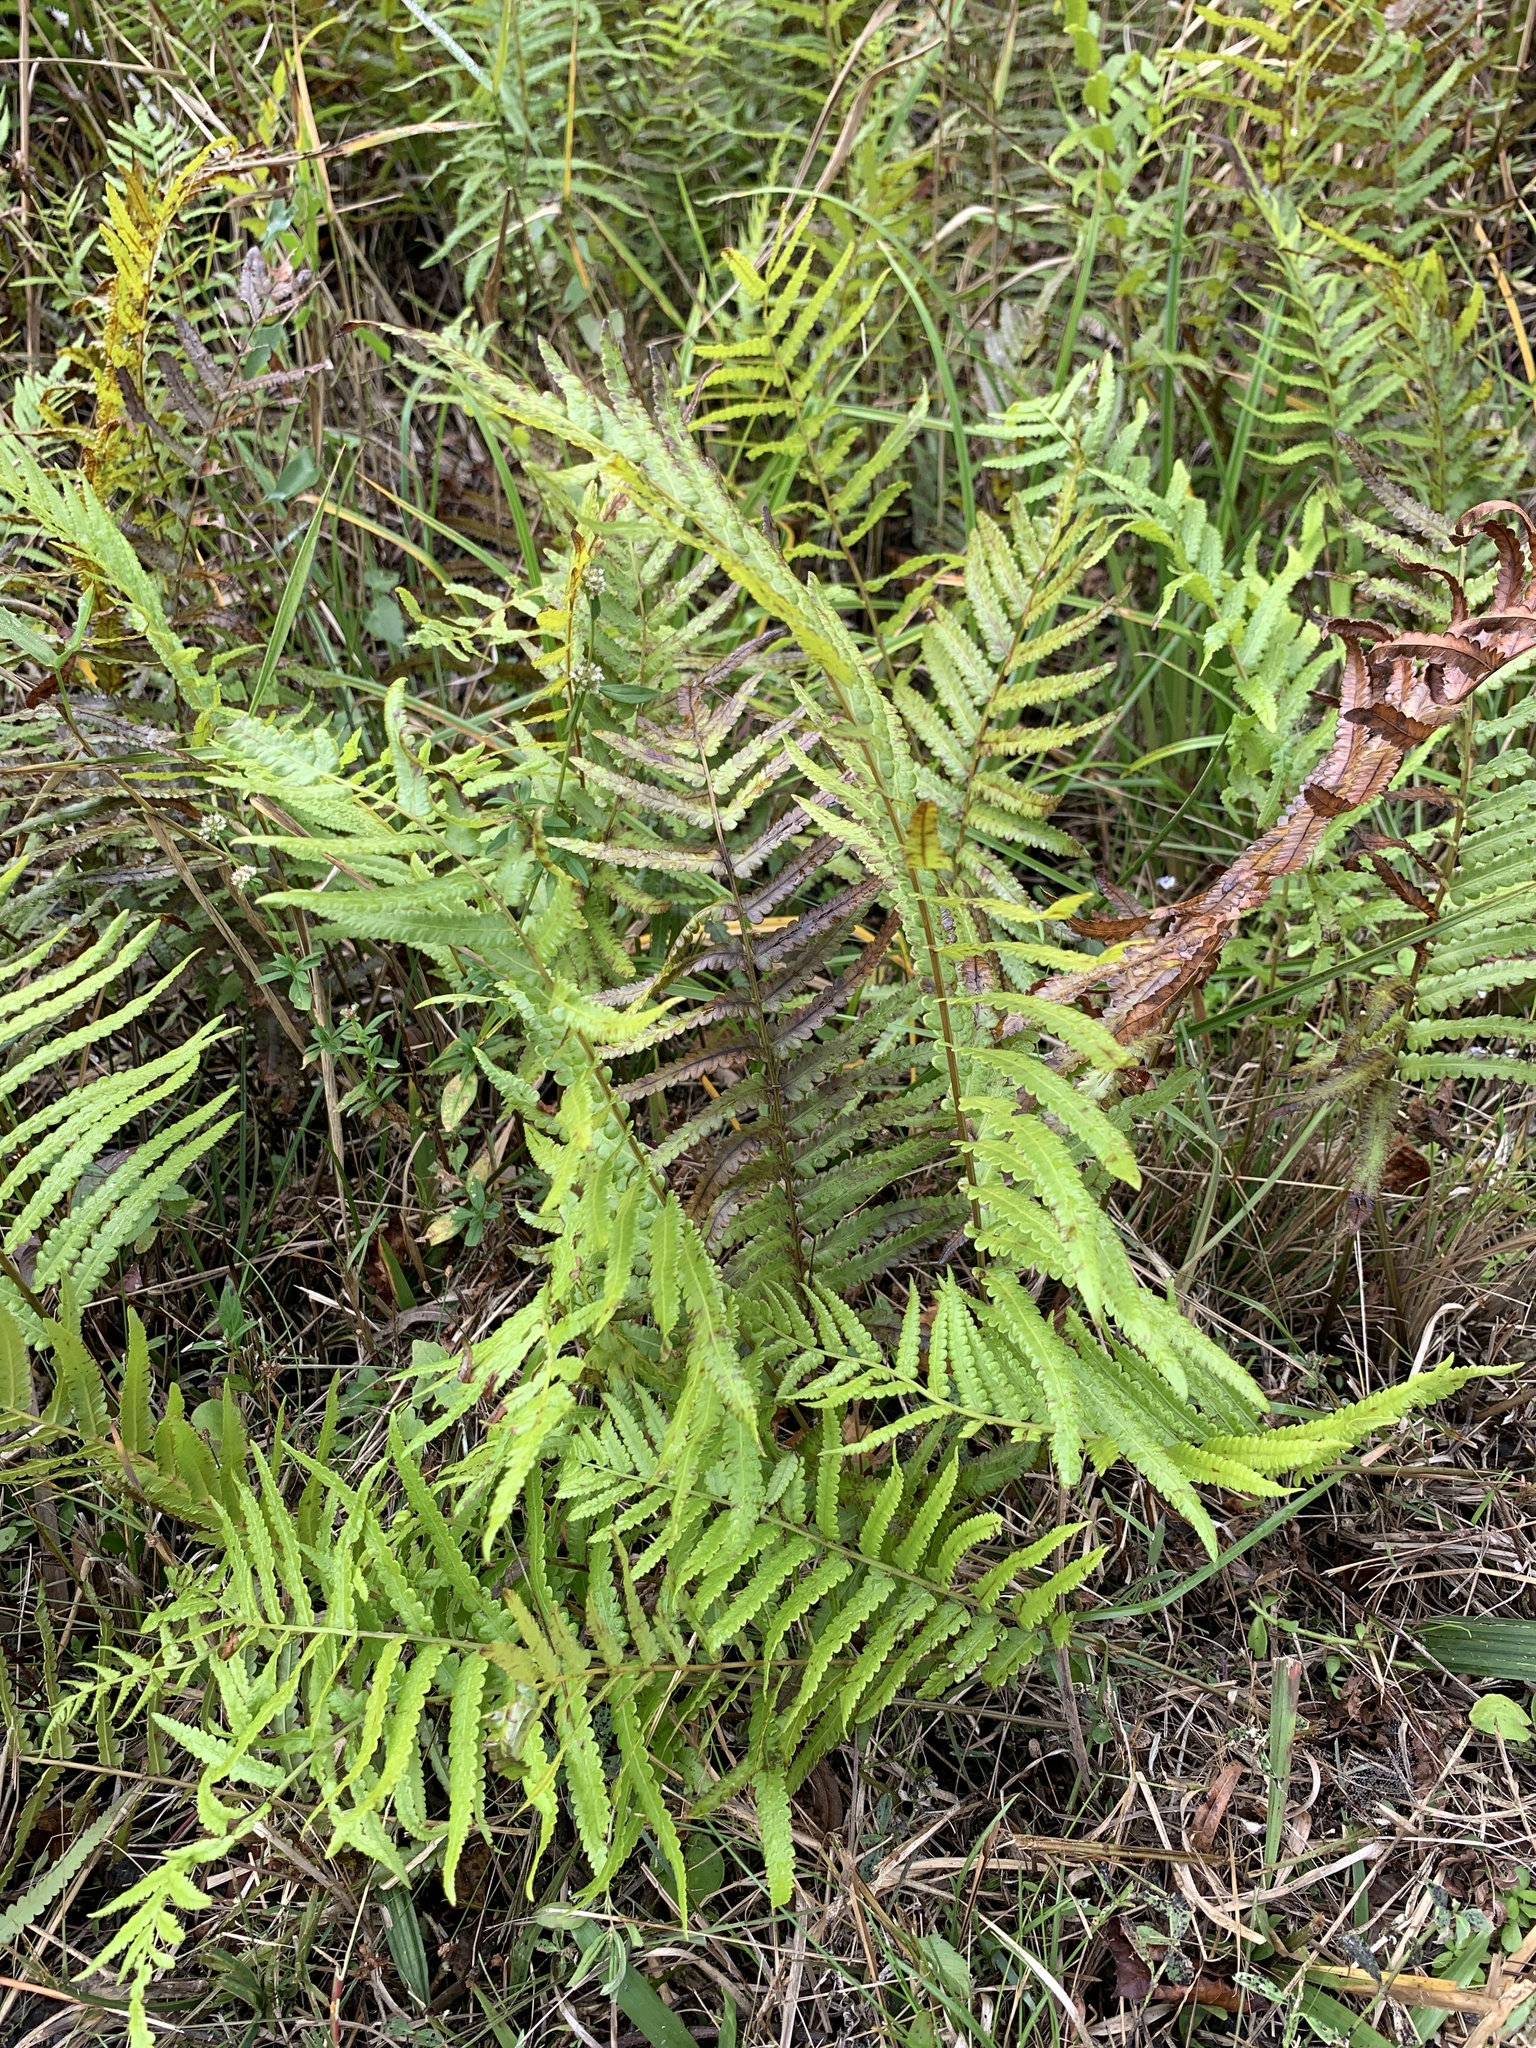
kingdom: Plantae
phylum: Tracheophyta
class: Polypodiopsida
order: Polypodiales
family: Thelypteridaceae
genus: Cyclosorus
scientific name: Cyclosorus interruptus
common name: Neke fern
